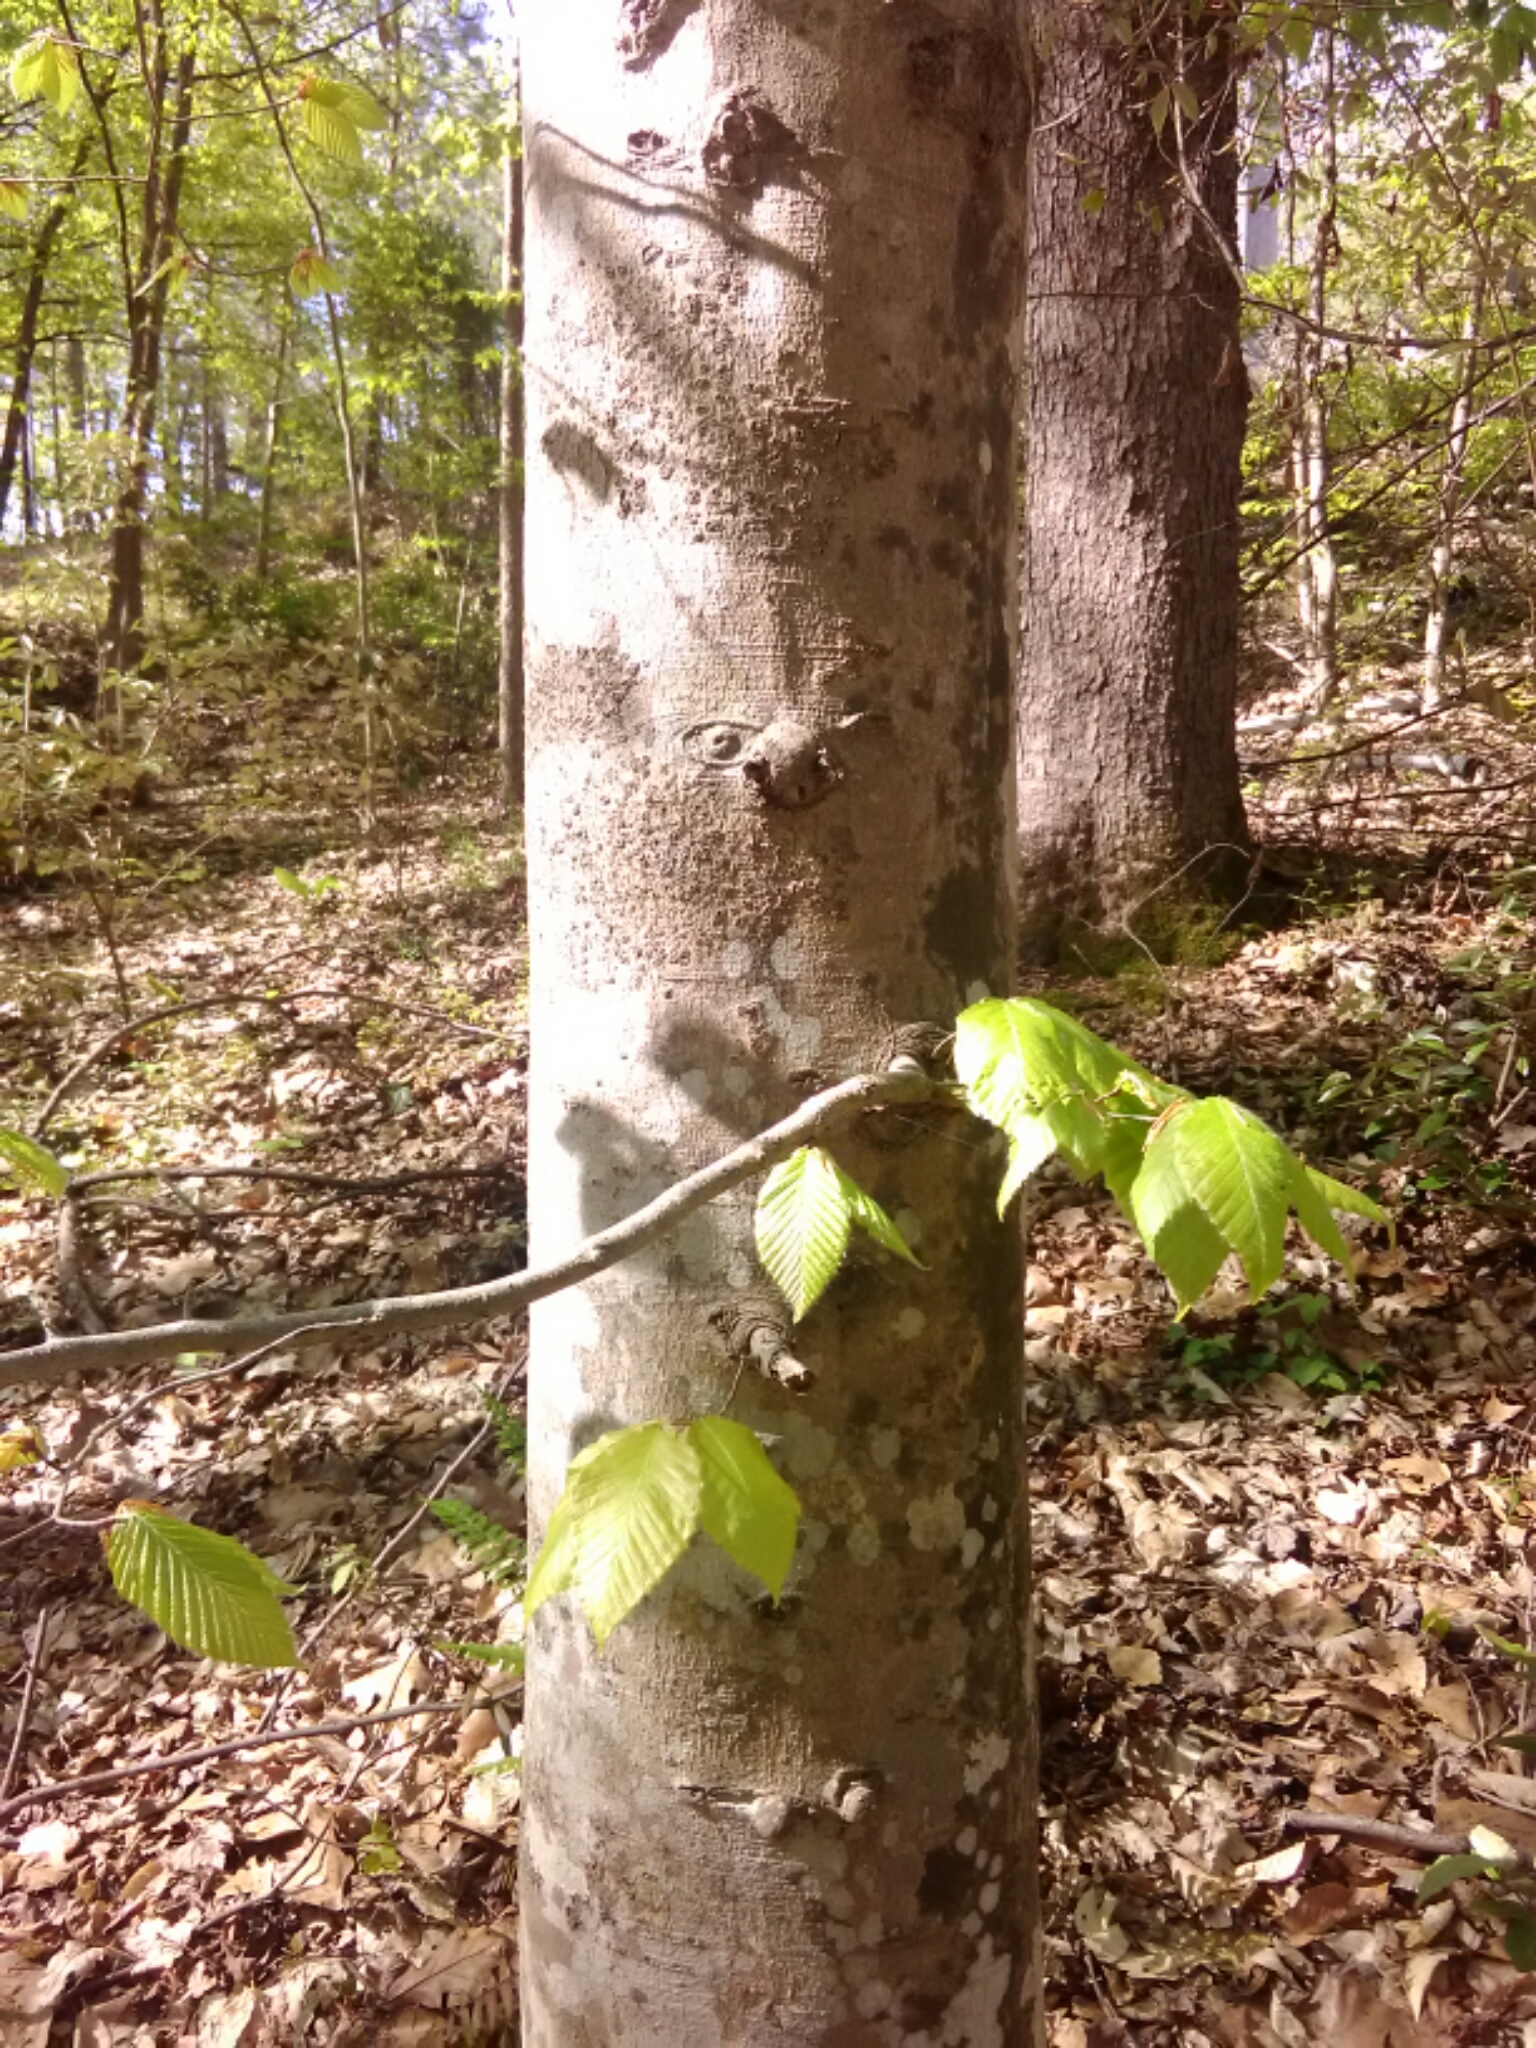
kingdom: Plantae
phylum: Tracheophyta
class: Magnoliopsida
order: Fagales
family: Fagaceae
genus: Fagus
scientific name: Fagus grandifolia
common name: American beech
